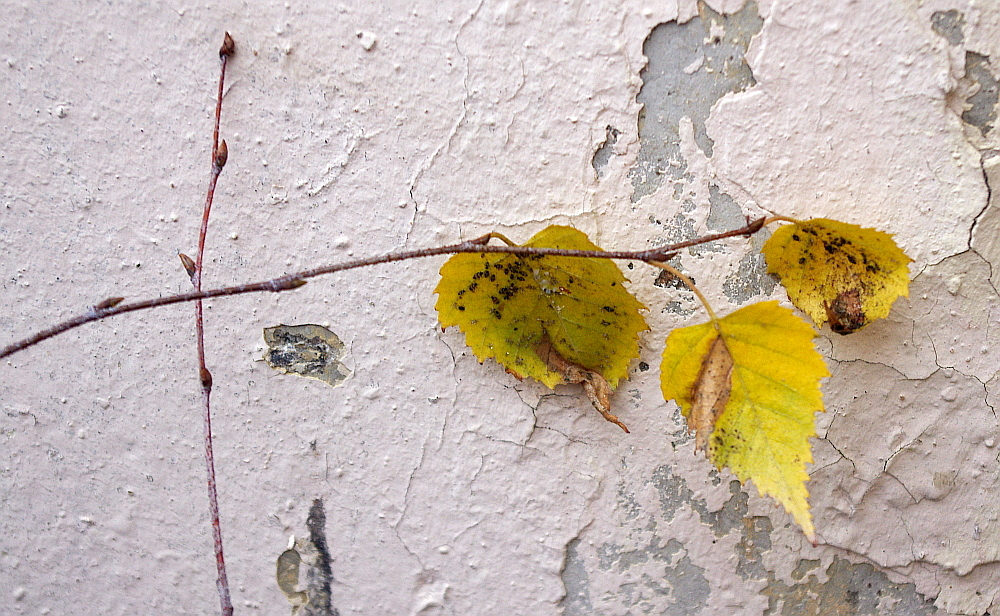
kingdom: Plantae
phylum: Tracheophyta
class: Magnoliopsida
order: Fagales
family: Betulaceae
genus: Betula
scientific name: Betula pendula
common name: Silver birch
